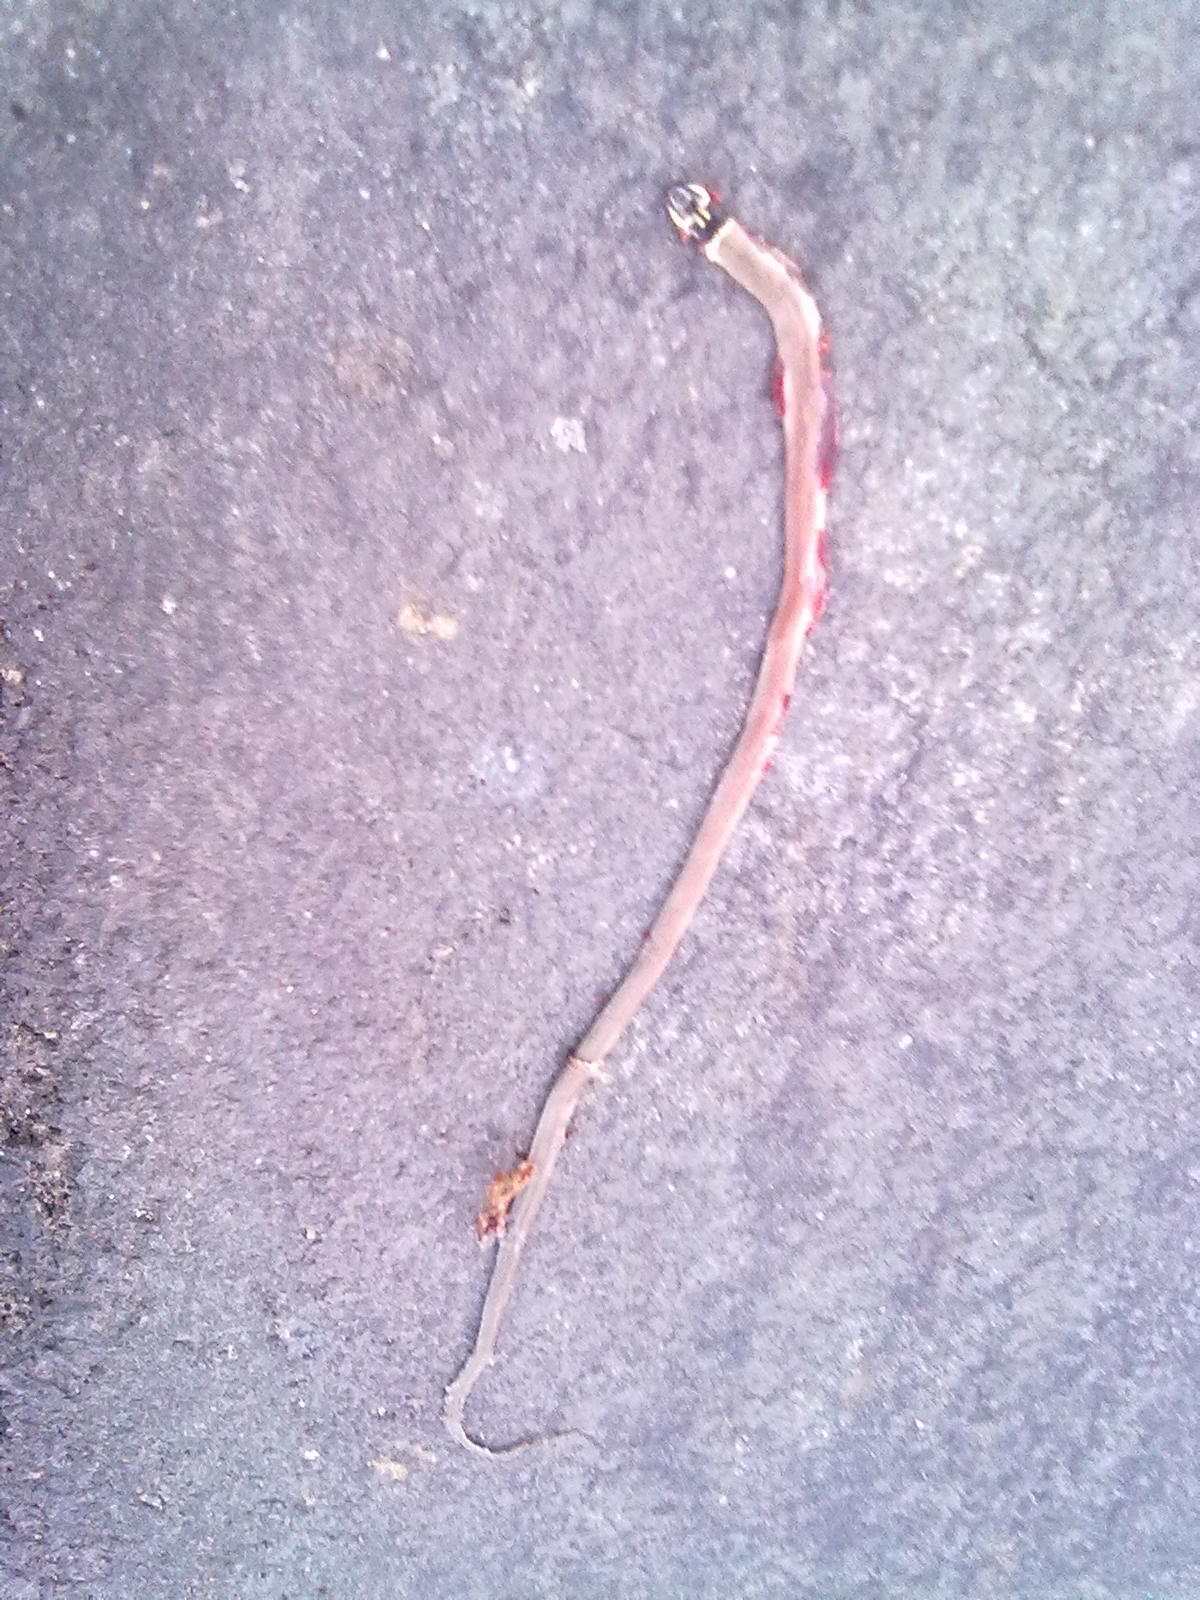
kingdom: Animalia
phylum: Chordata
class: Squamata
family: Colubridae
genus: Sibynophis
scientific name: Sibynophis subpunctatus
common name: Black-headed snake
